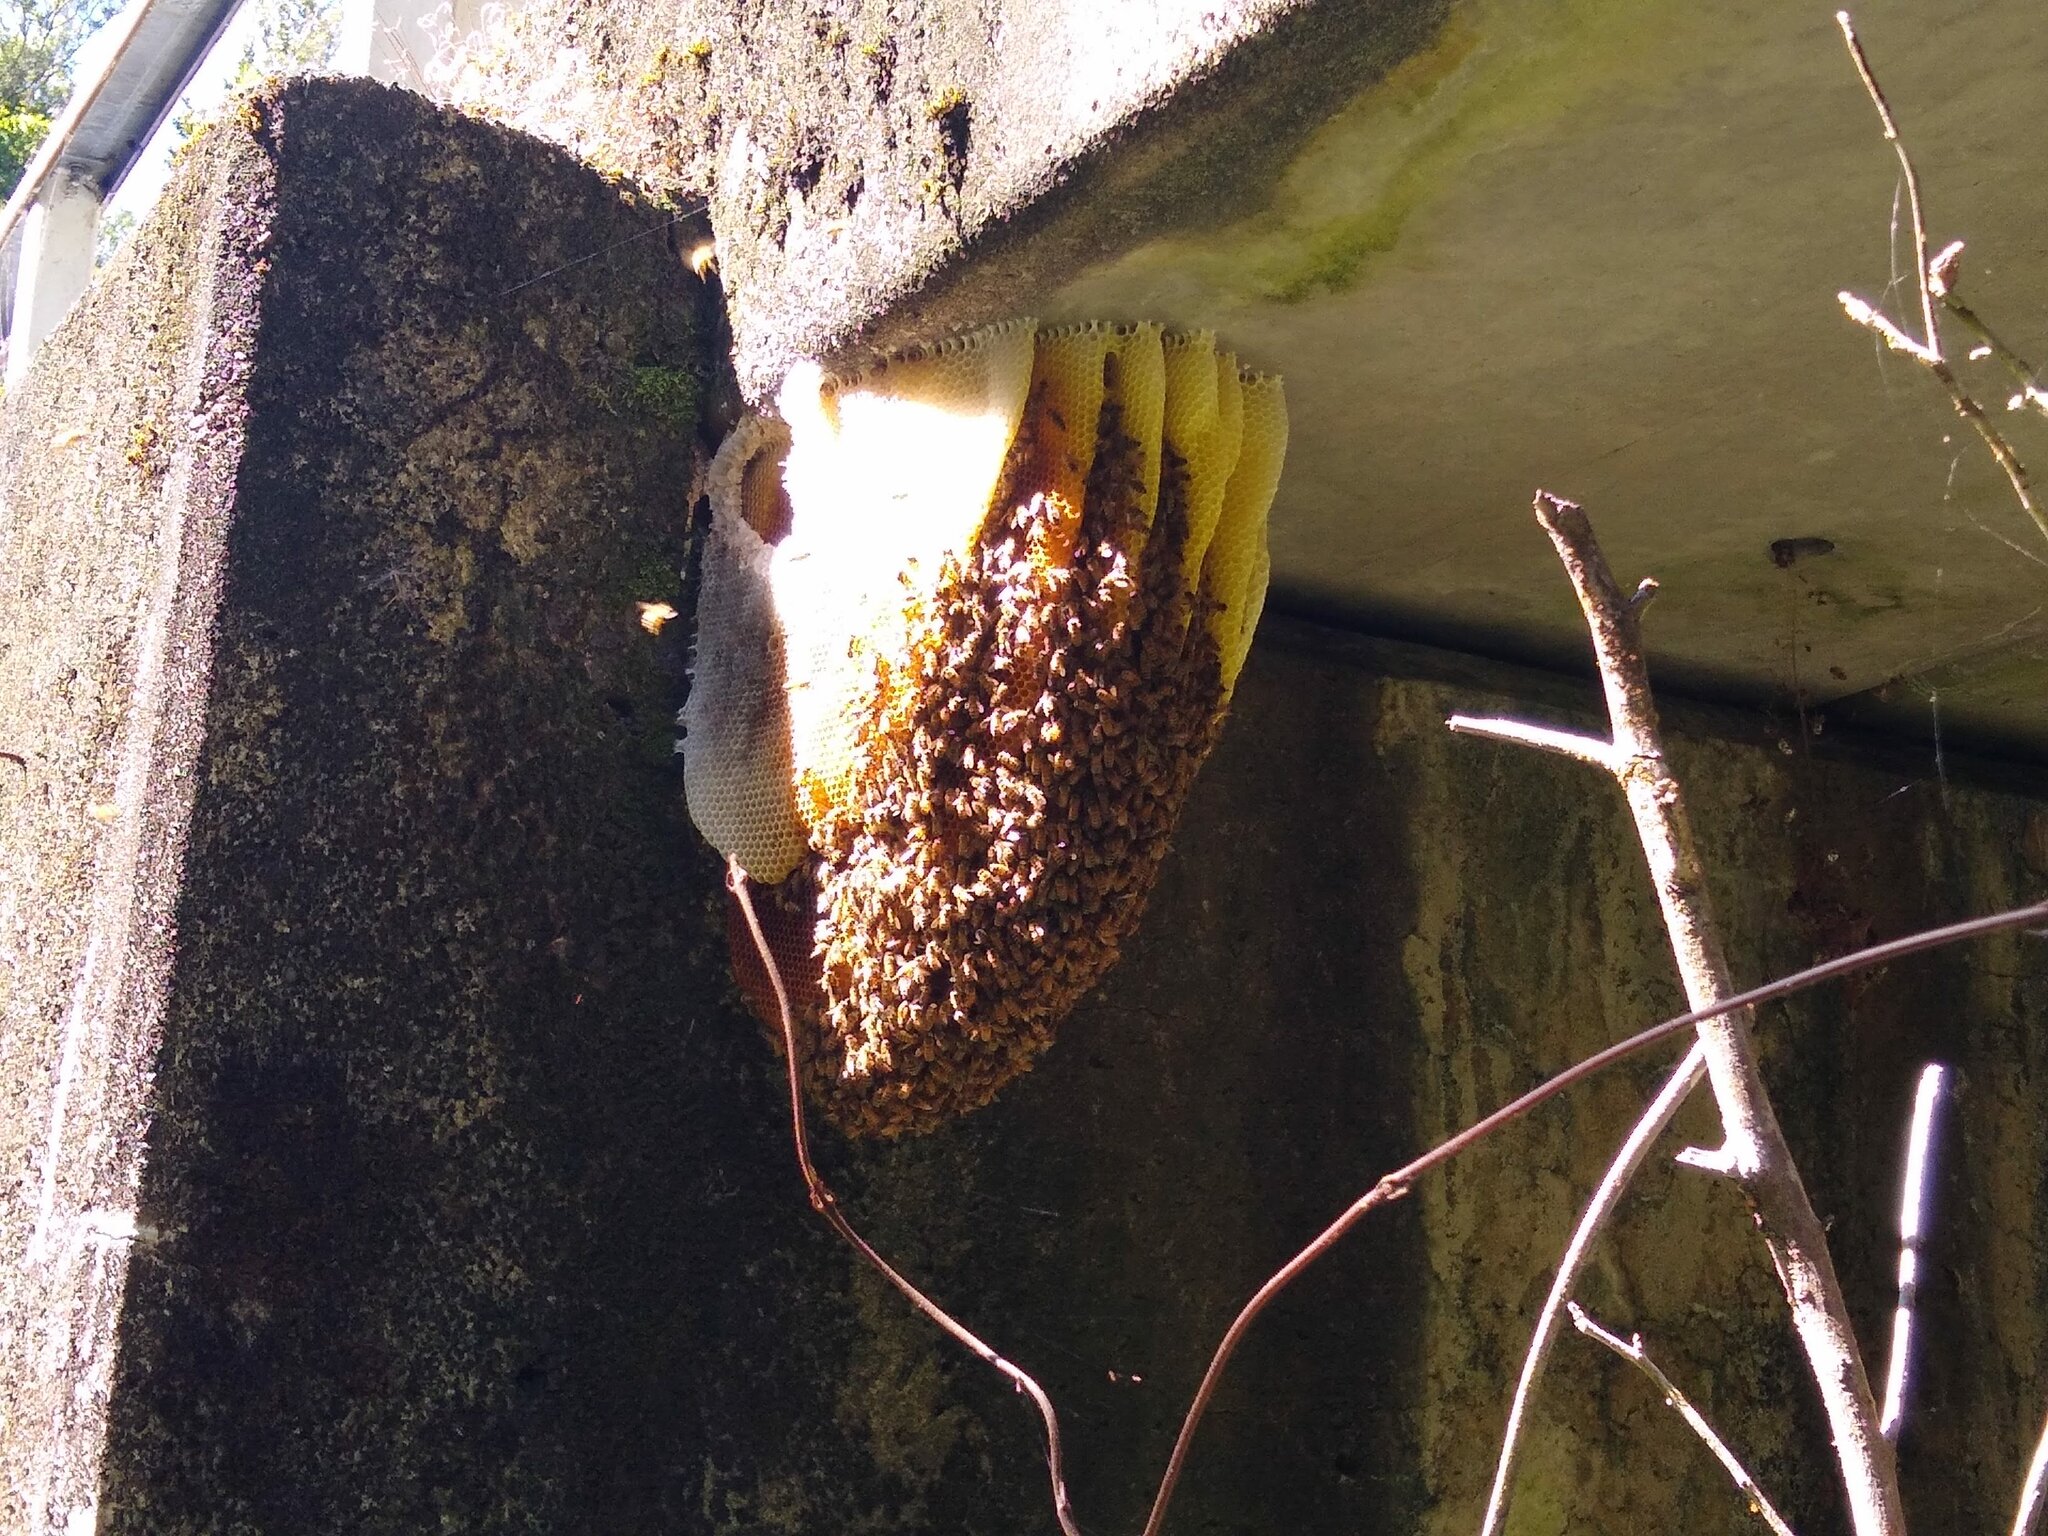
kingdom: Animalia
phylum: Arthropoda
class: Insecta
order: Hymenoptera
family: Apidae
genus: Apis
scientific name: Apis mellifera
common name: Honey bee
